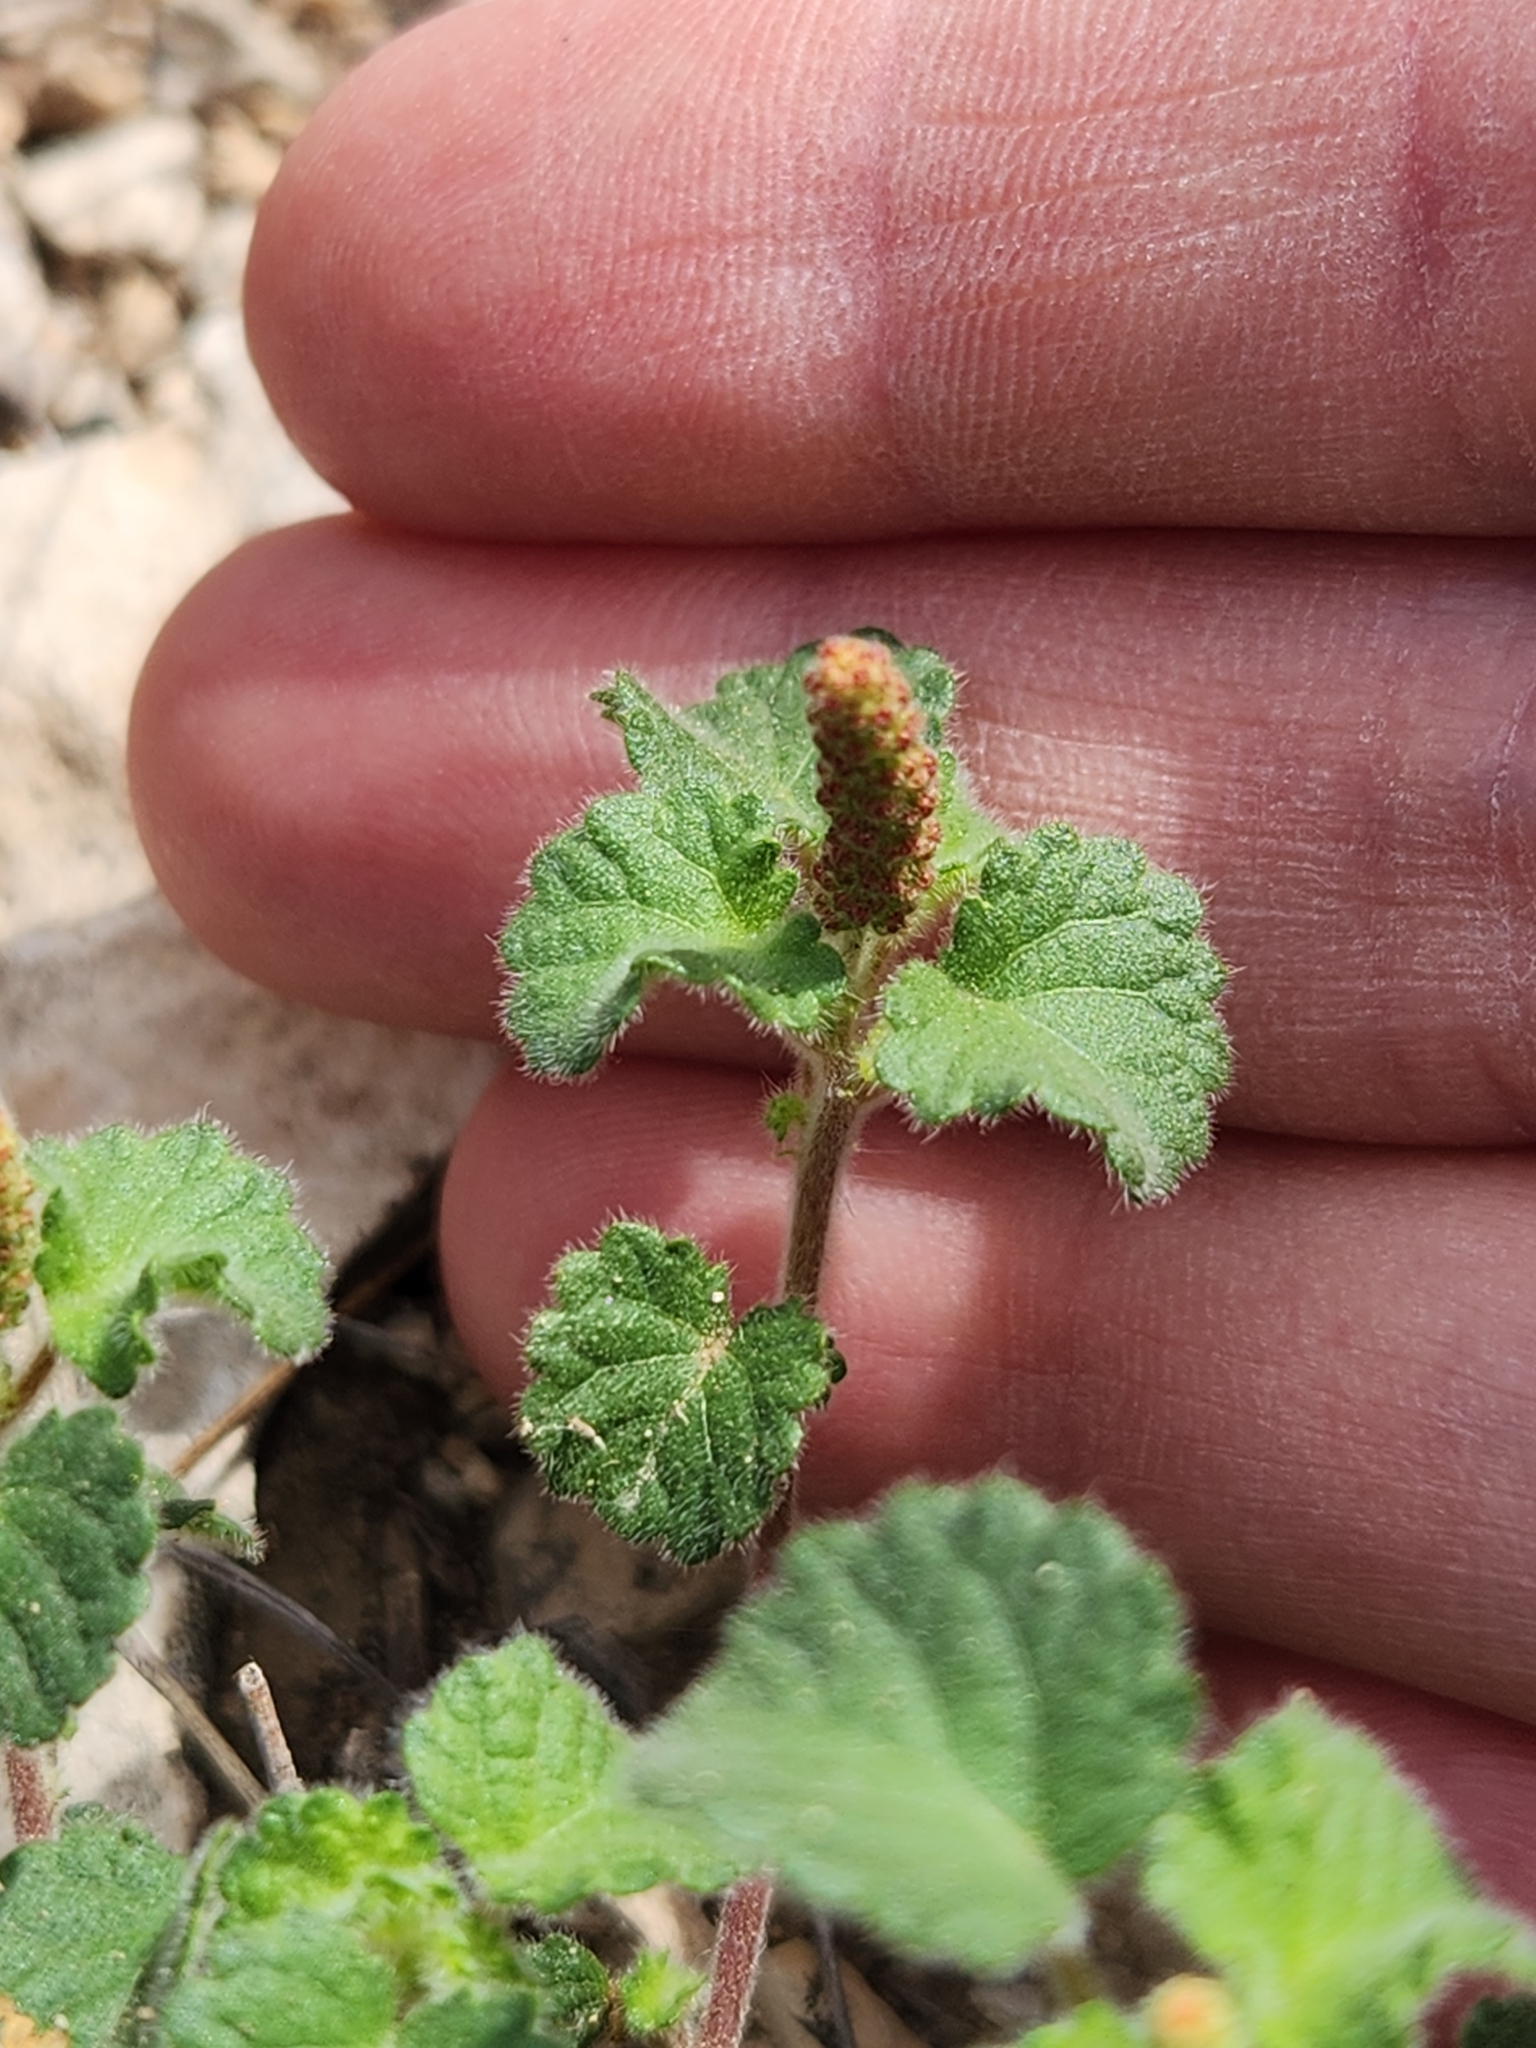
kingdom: Plantae
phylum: Tracheophyta
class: Magnoliopsida
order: Malpighiales
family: Euphorbiaceae
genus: Acalypha
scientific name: Acalypha monostachya
